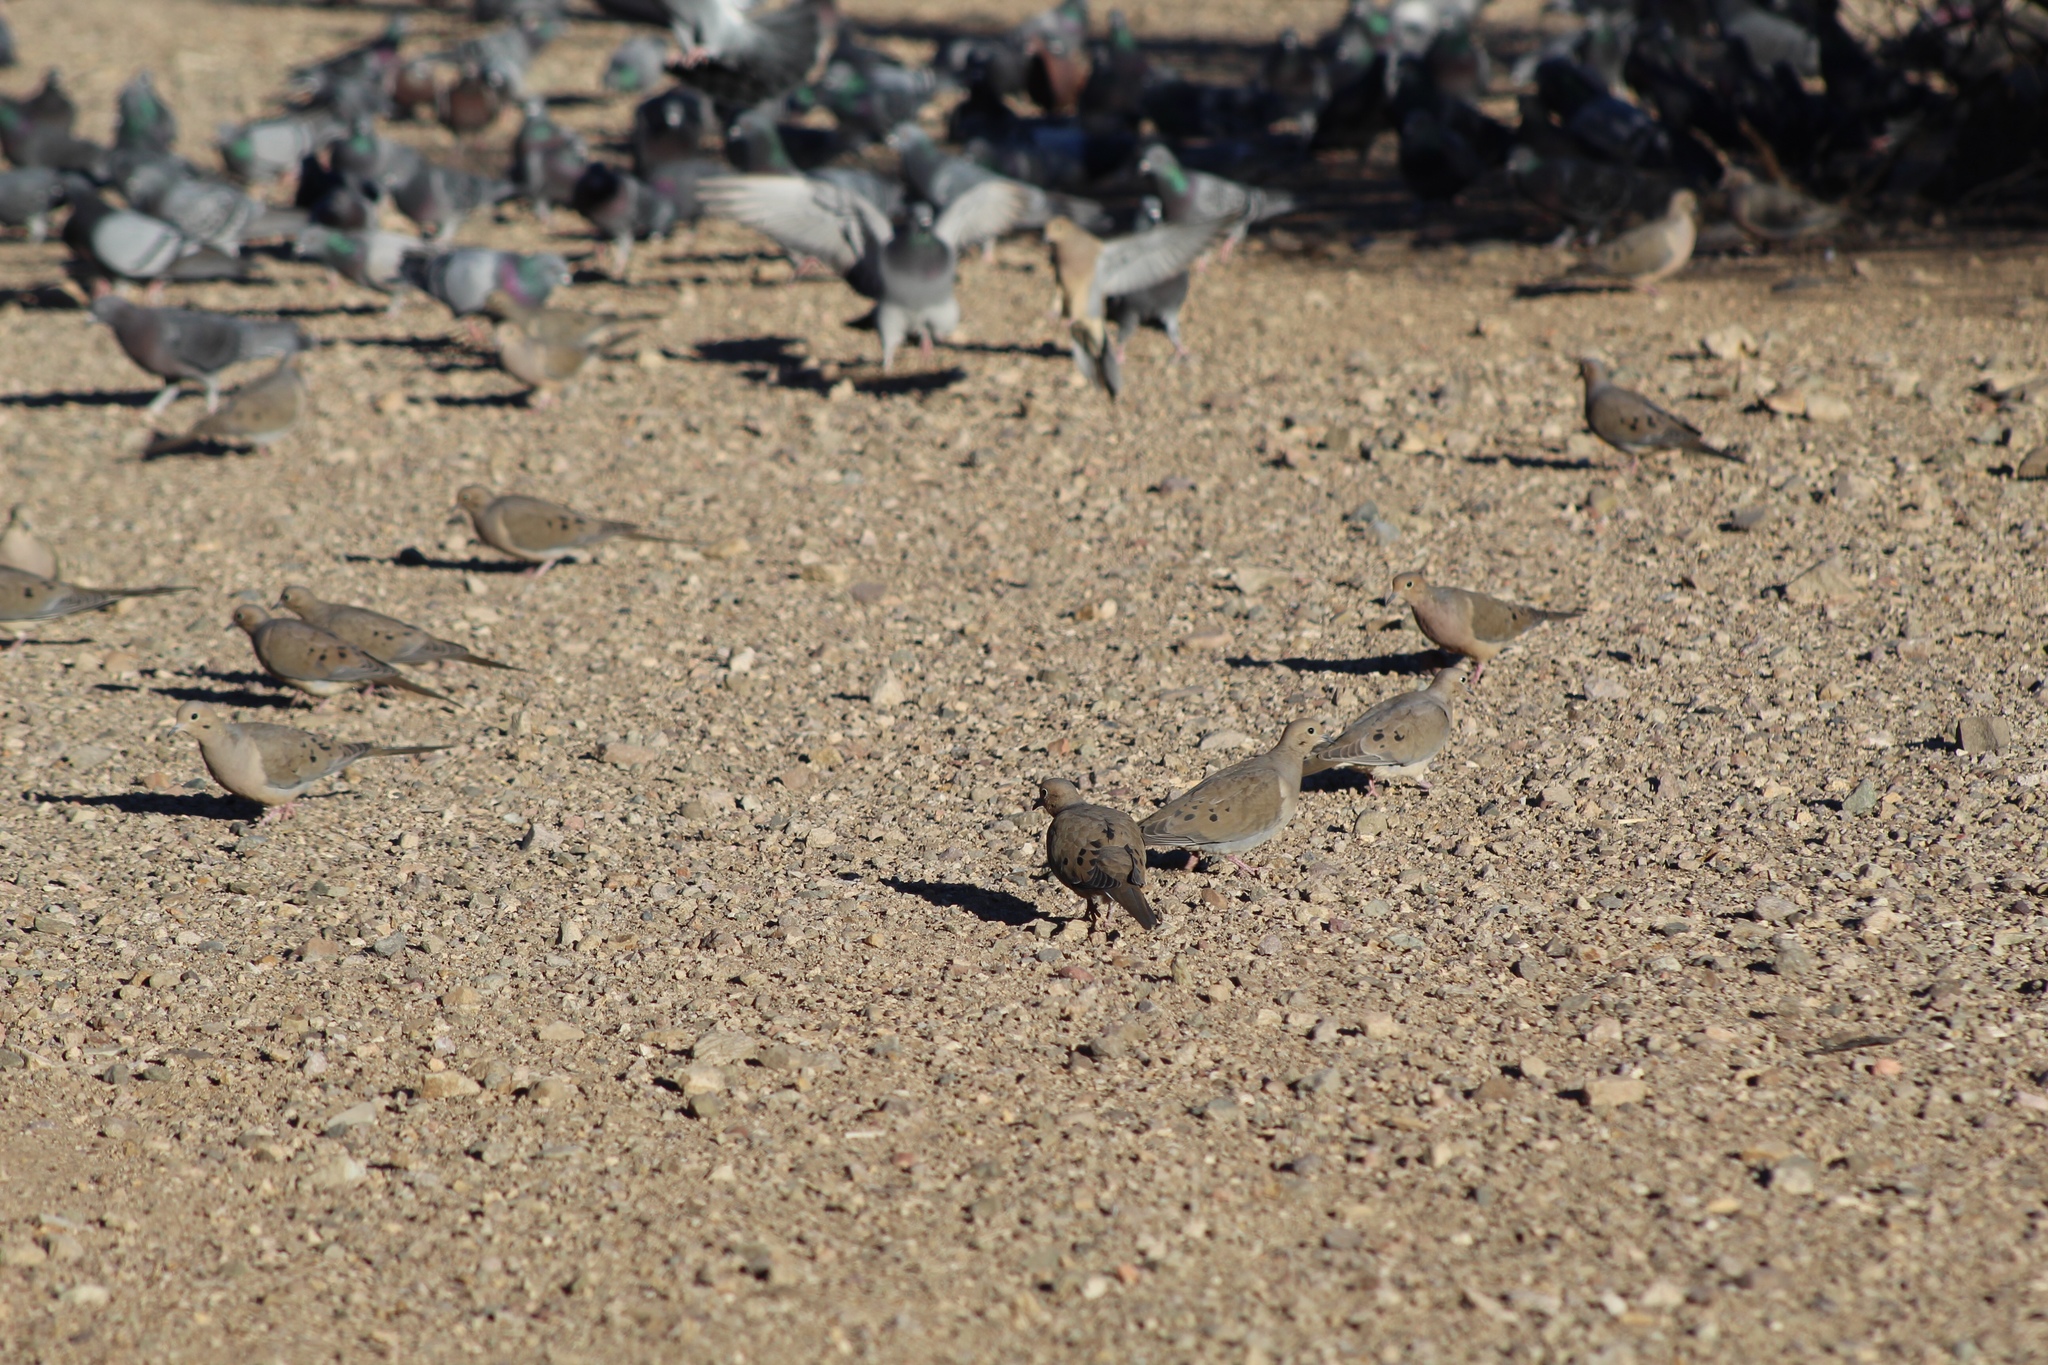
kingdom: Animalia
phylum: Chordata
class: Aves
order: Columbiformes
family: Columbidae
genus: Zenaida
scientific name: Zenaida macroura
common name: Mourning dove
